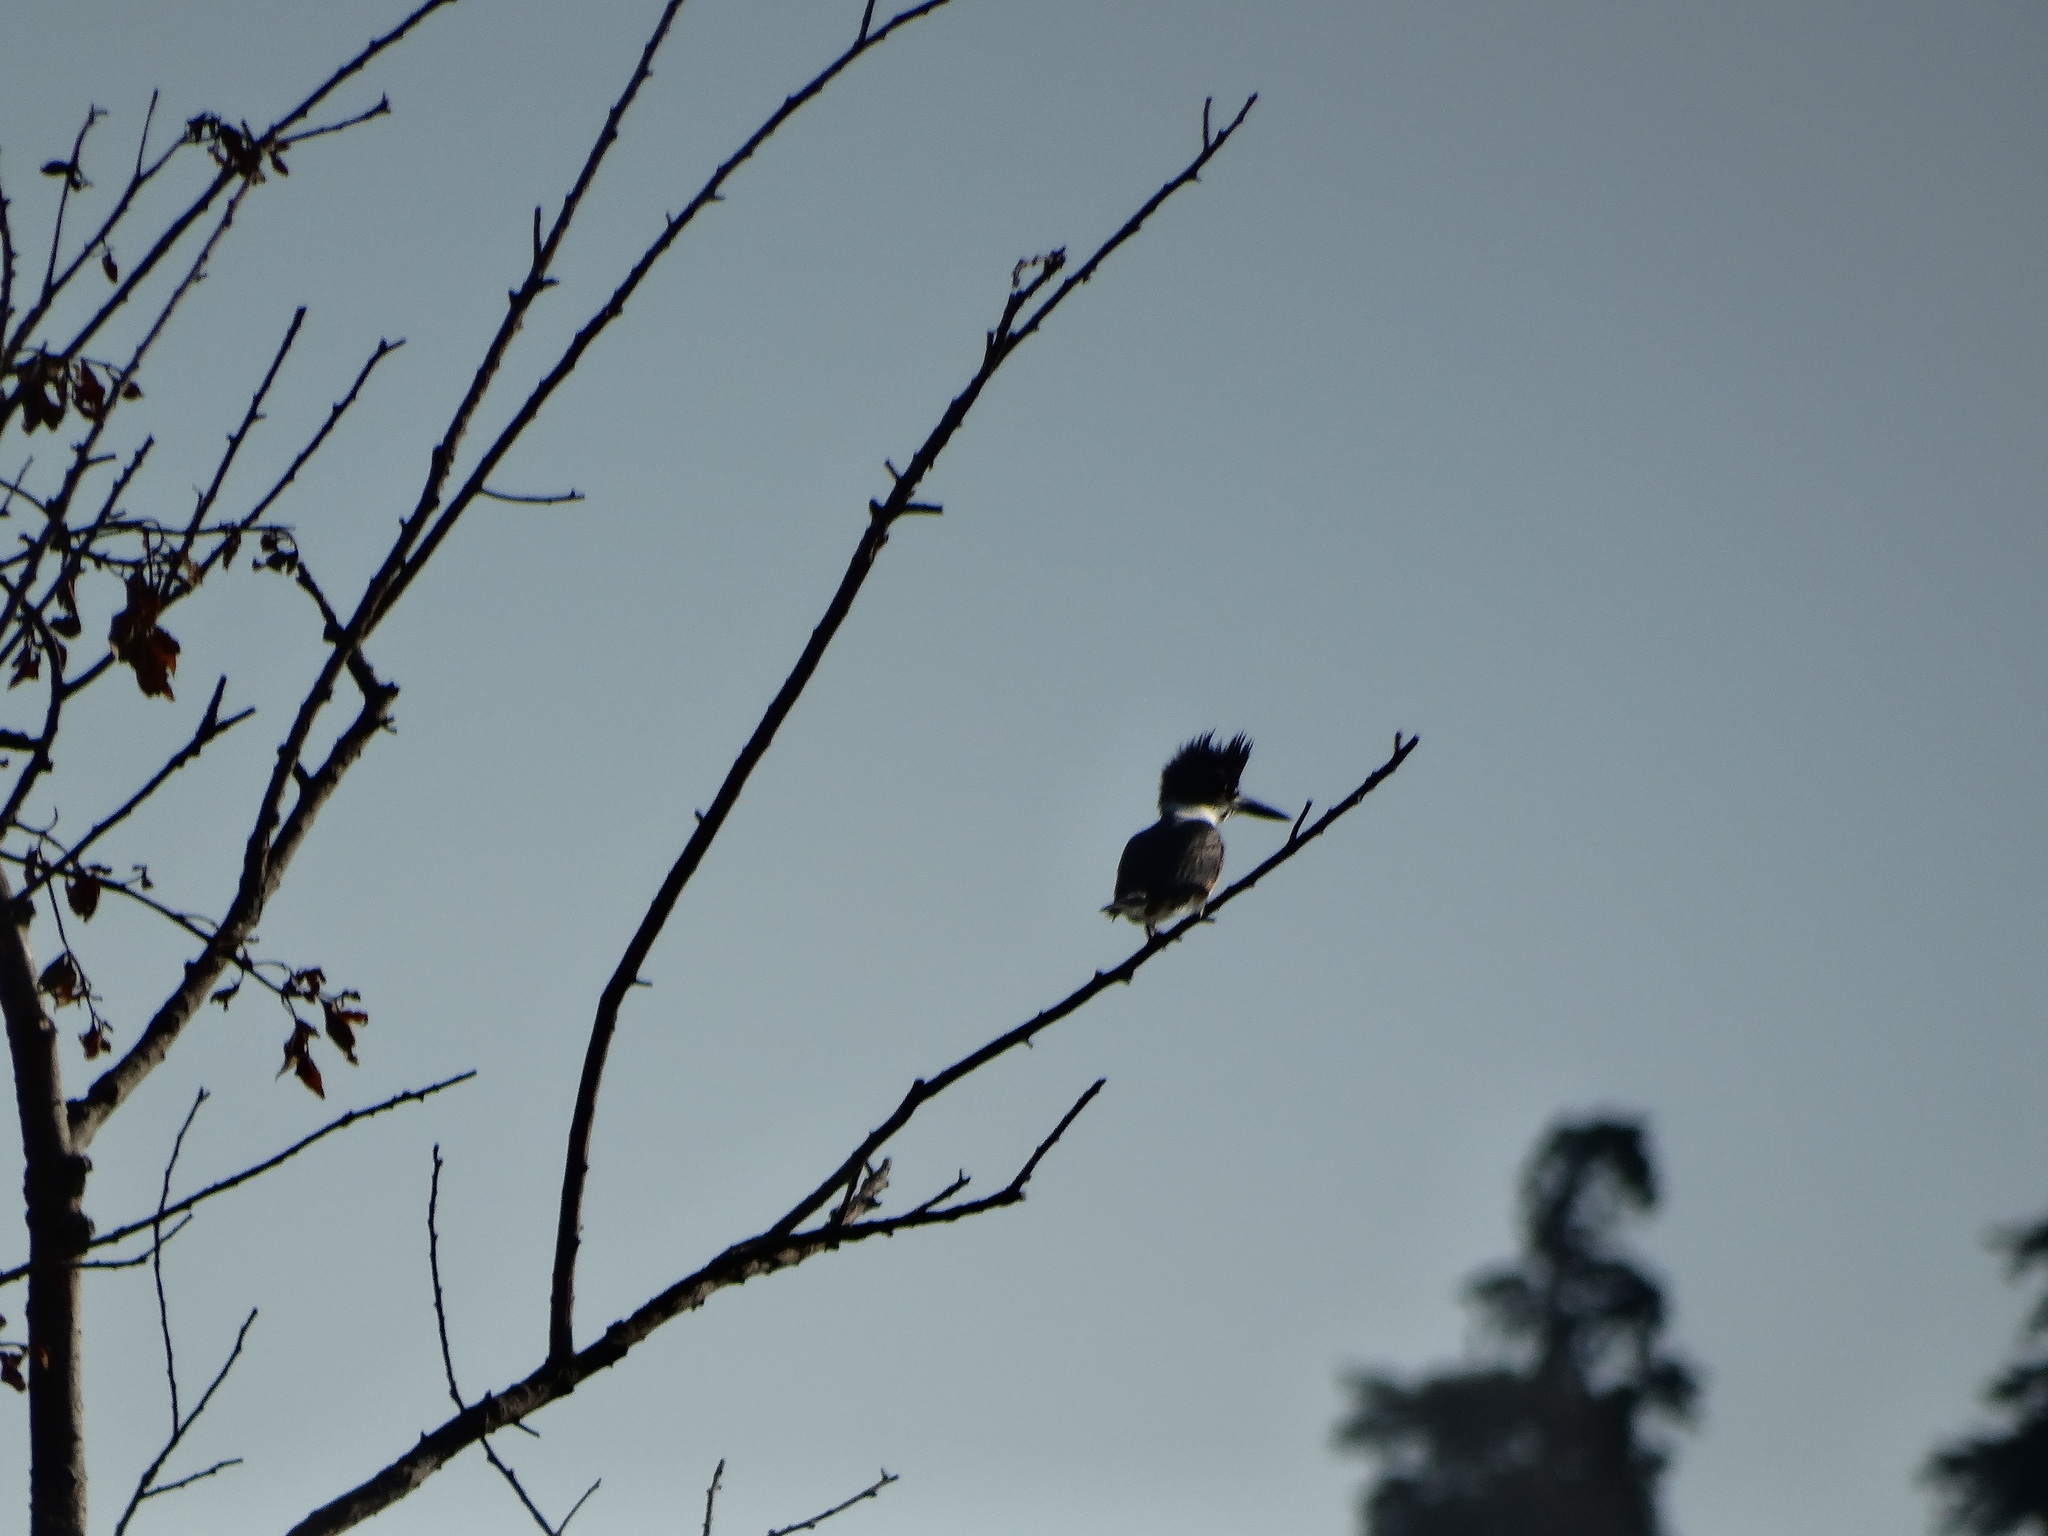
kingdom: Animalia
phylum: Chordata
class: Aves
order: Coraciiformes
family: Alcedinidae
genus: Megaceryle
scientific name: Megaceryle alcyon
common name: Belted kingfisher
